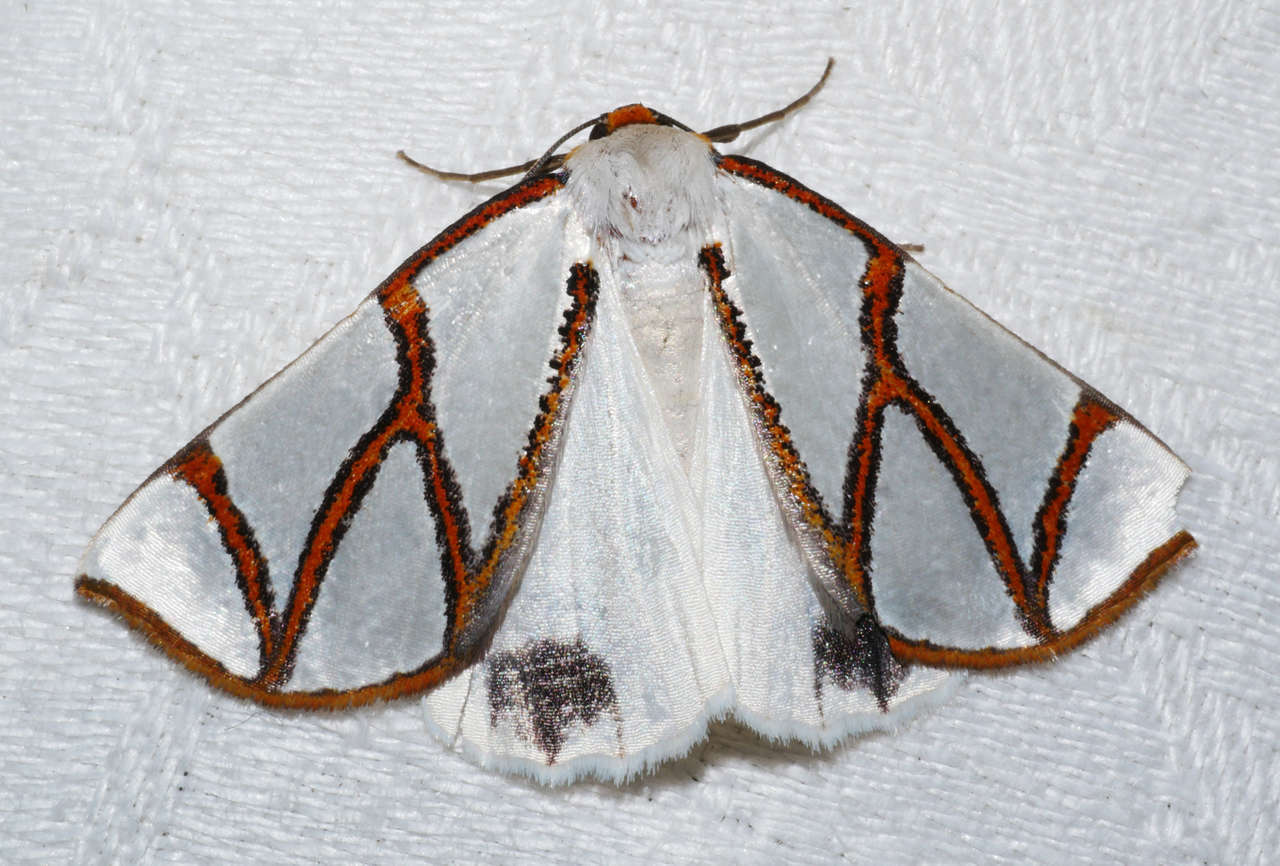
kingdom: Animalia
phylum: Arthropoda
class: Insecta
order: Lepidoptera
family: Geometridae
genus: Thalaina
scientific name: Thalaina clara
